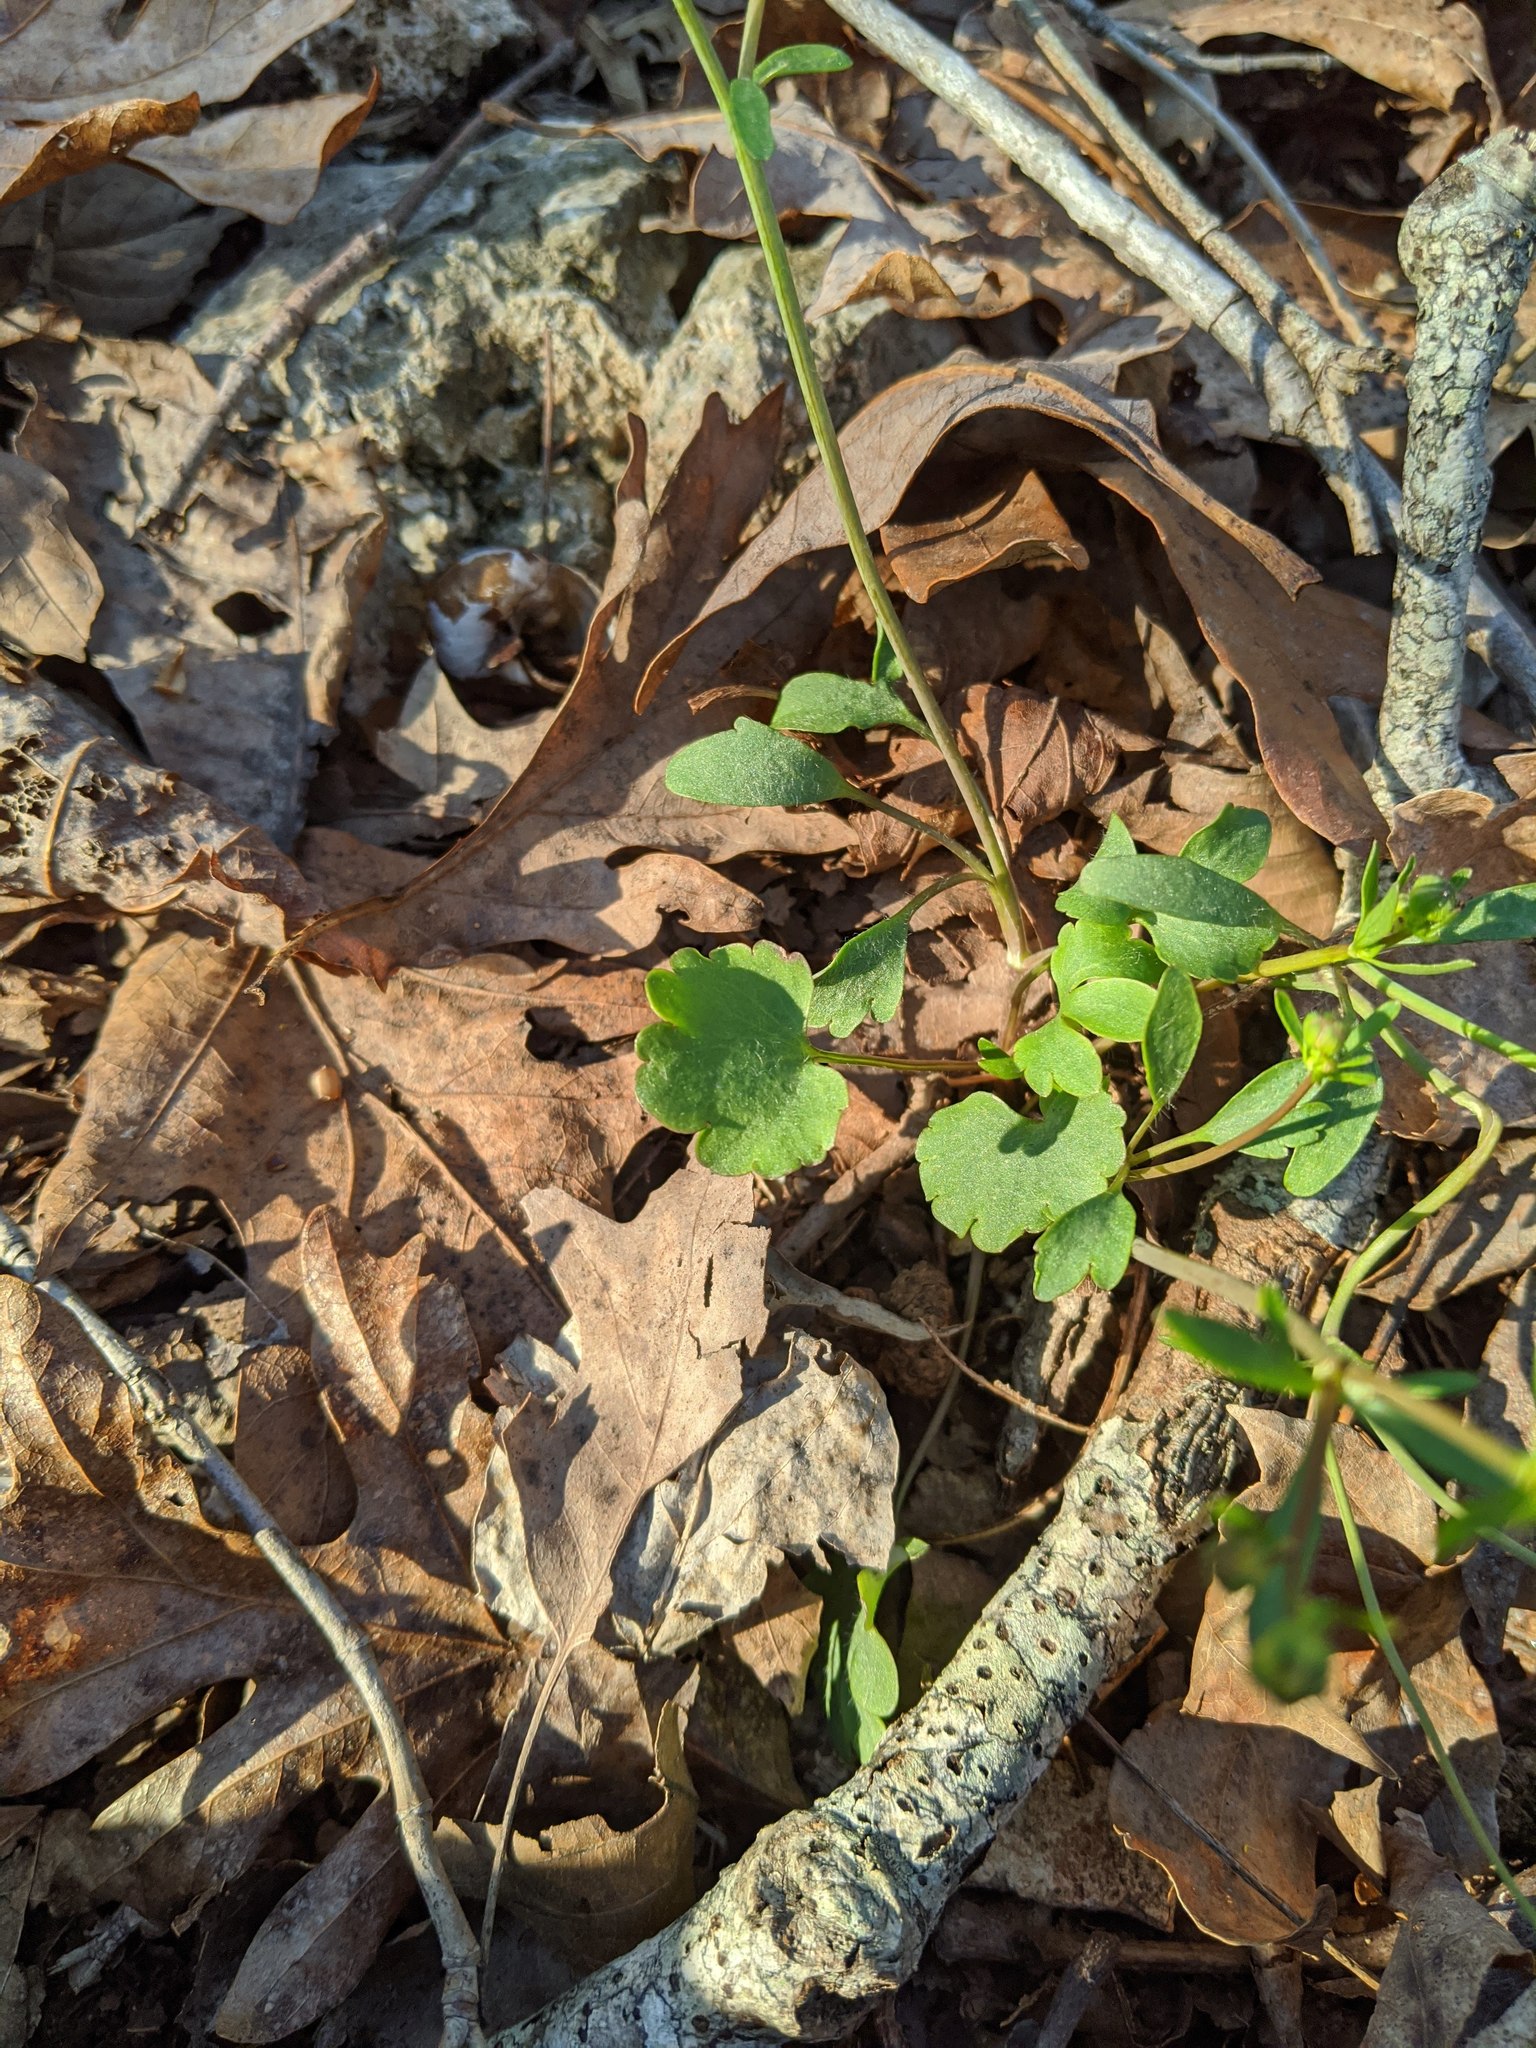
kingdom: Plantae
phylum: Tracheophyta
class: Magnoliopsida
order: Ranunculales
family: Ranunculaceae
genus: Ranunculus
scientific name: Ranunculus harveyi
